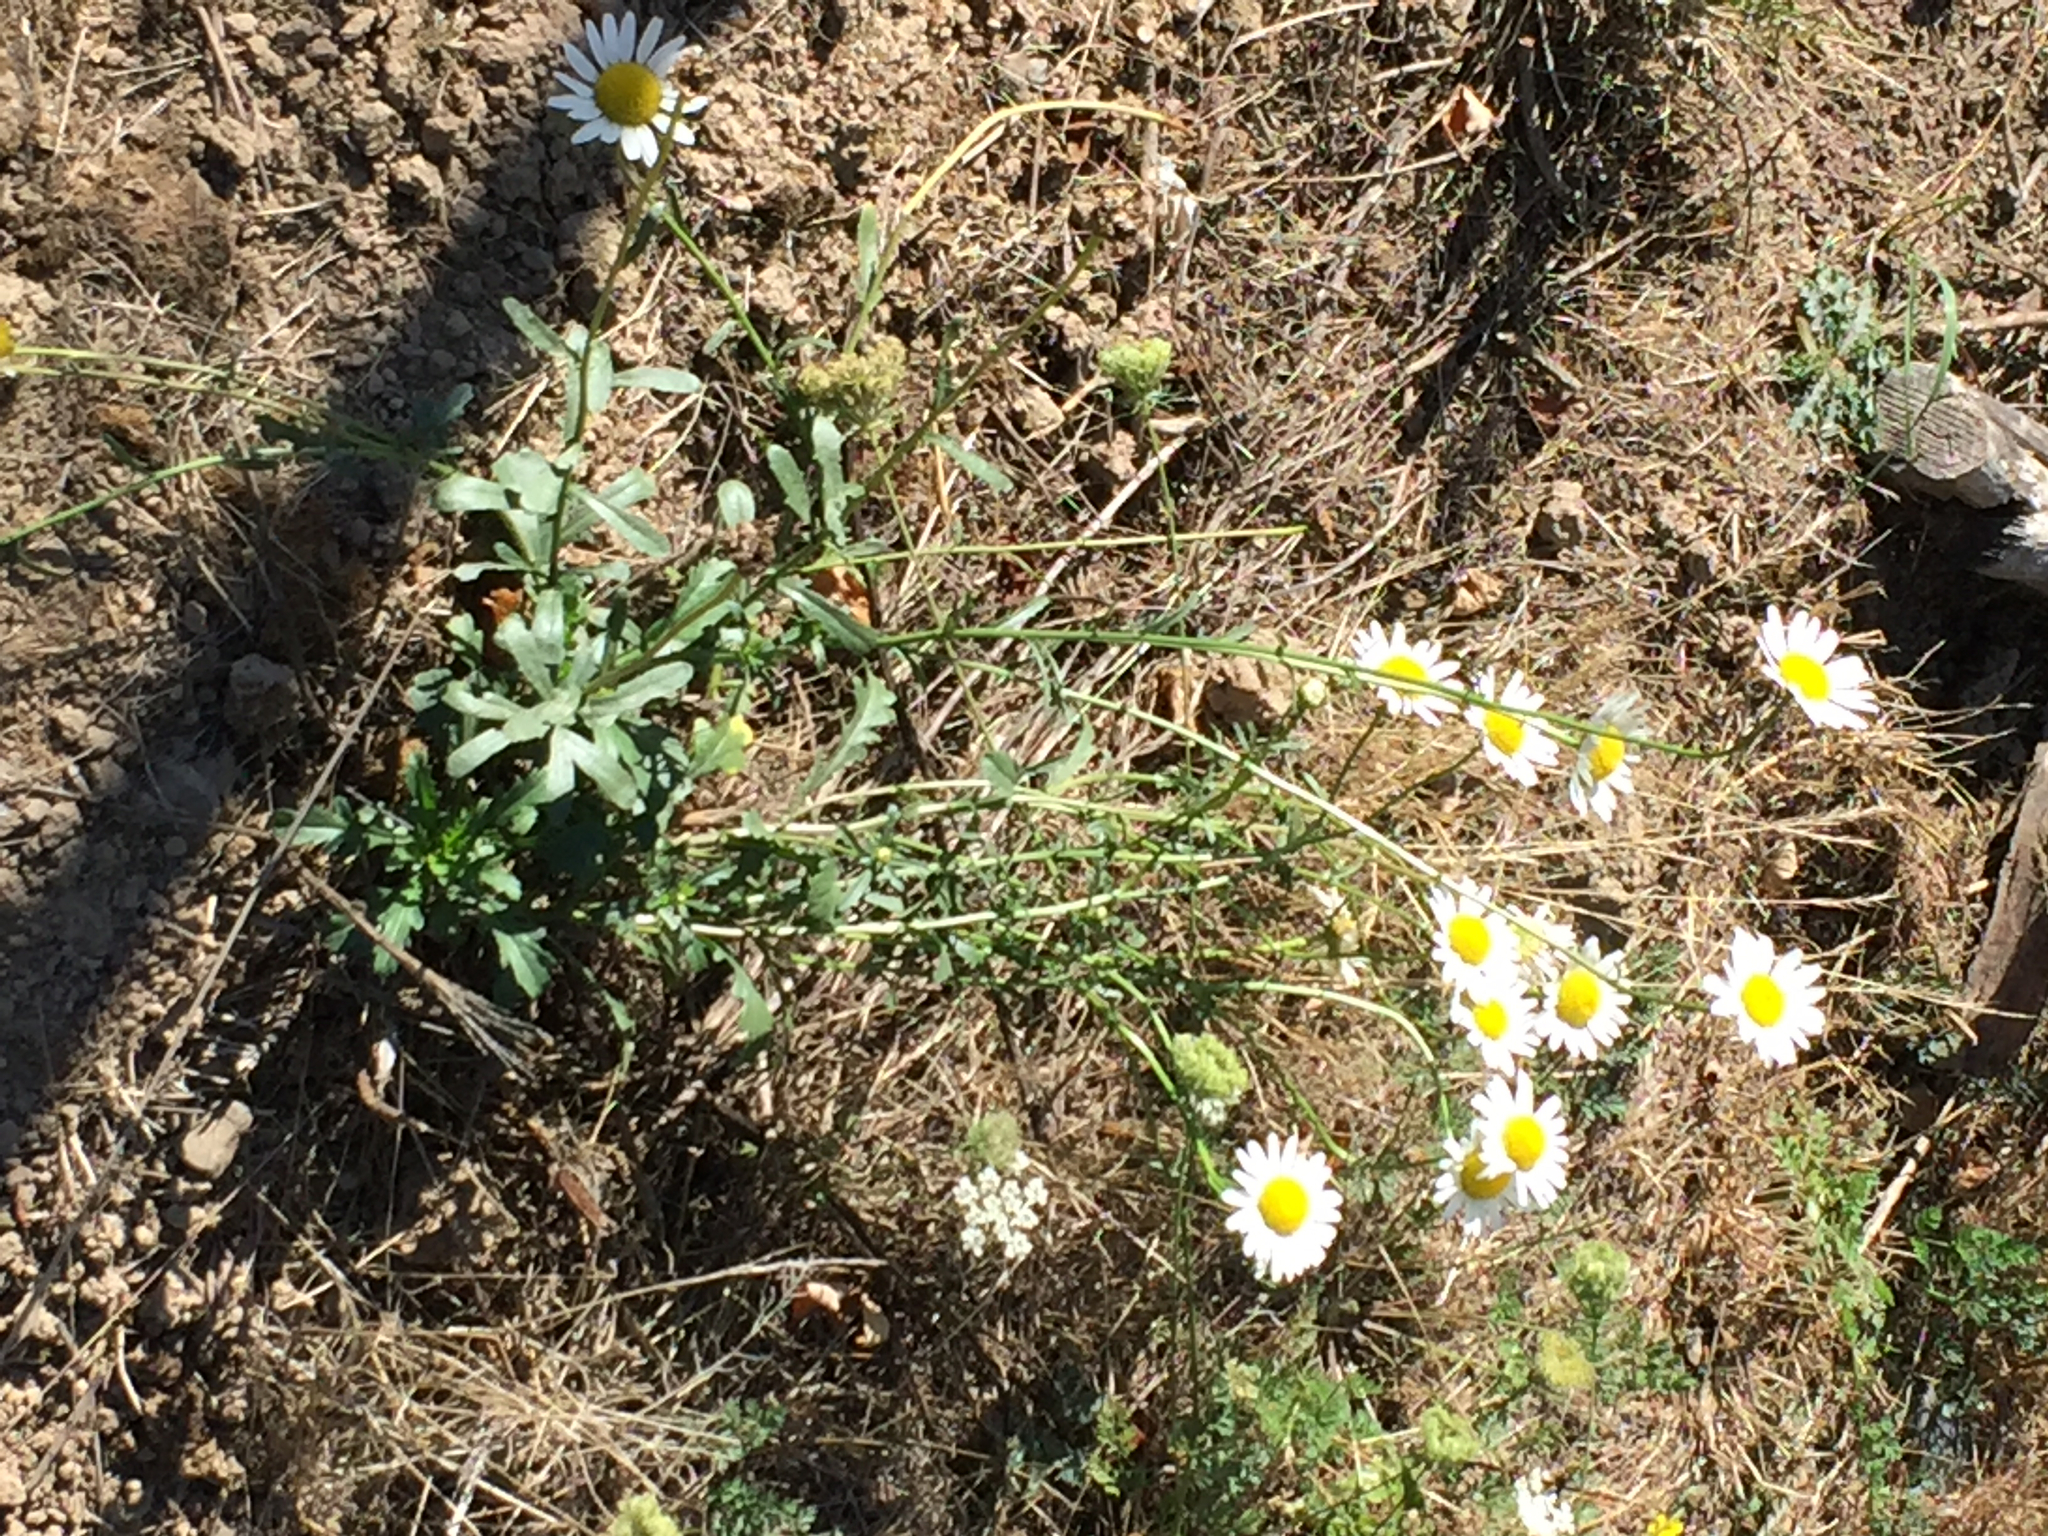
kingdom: Plantae
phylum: Tracheophyta
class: Magnoliopsida
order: Asterales
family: Asteraceae
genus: Leucanthemum
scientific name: Leucanthemum vulgare
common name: Oxeye daisy
